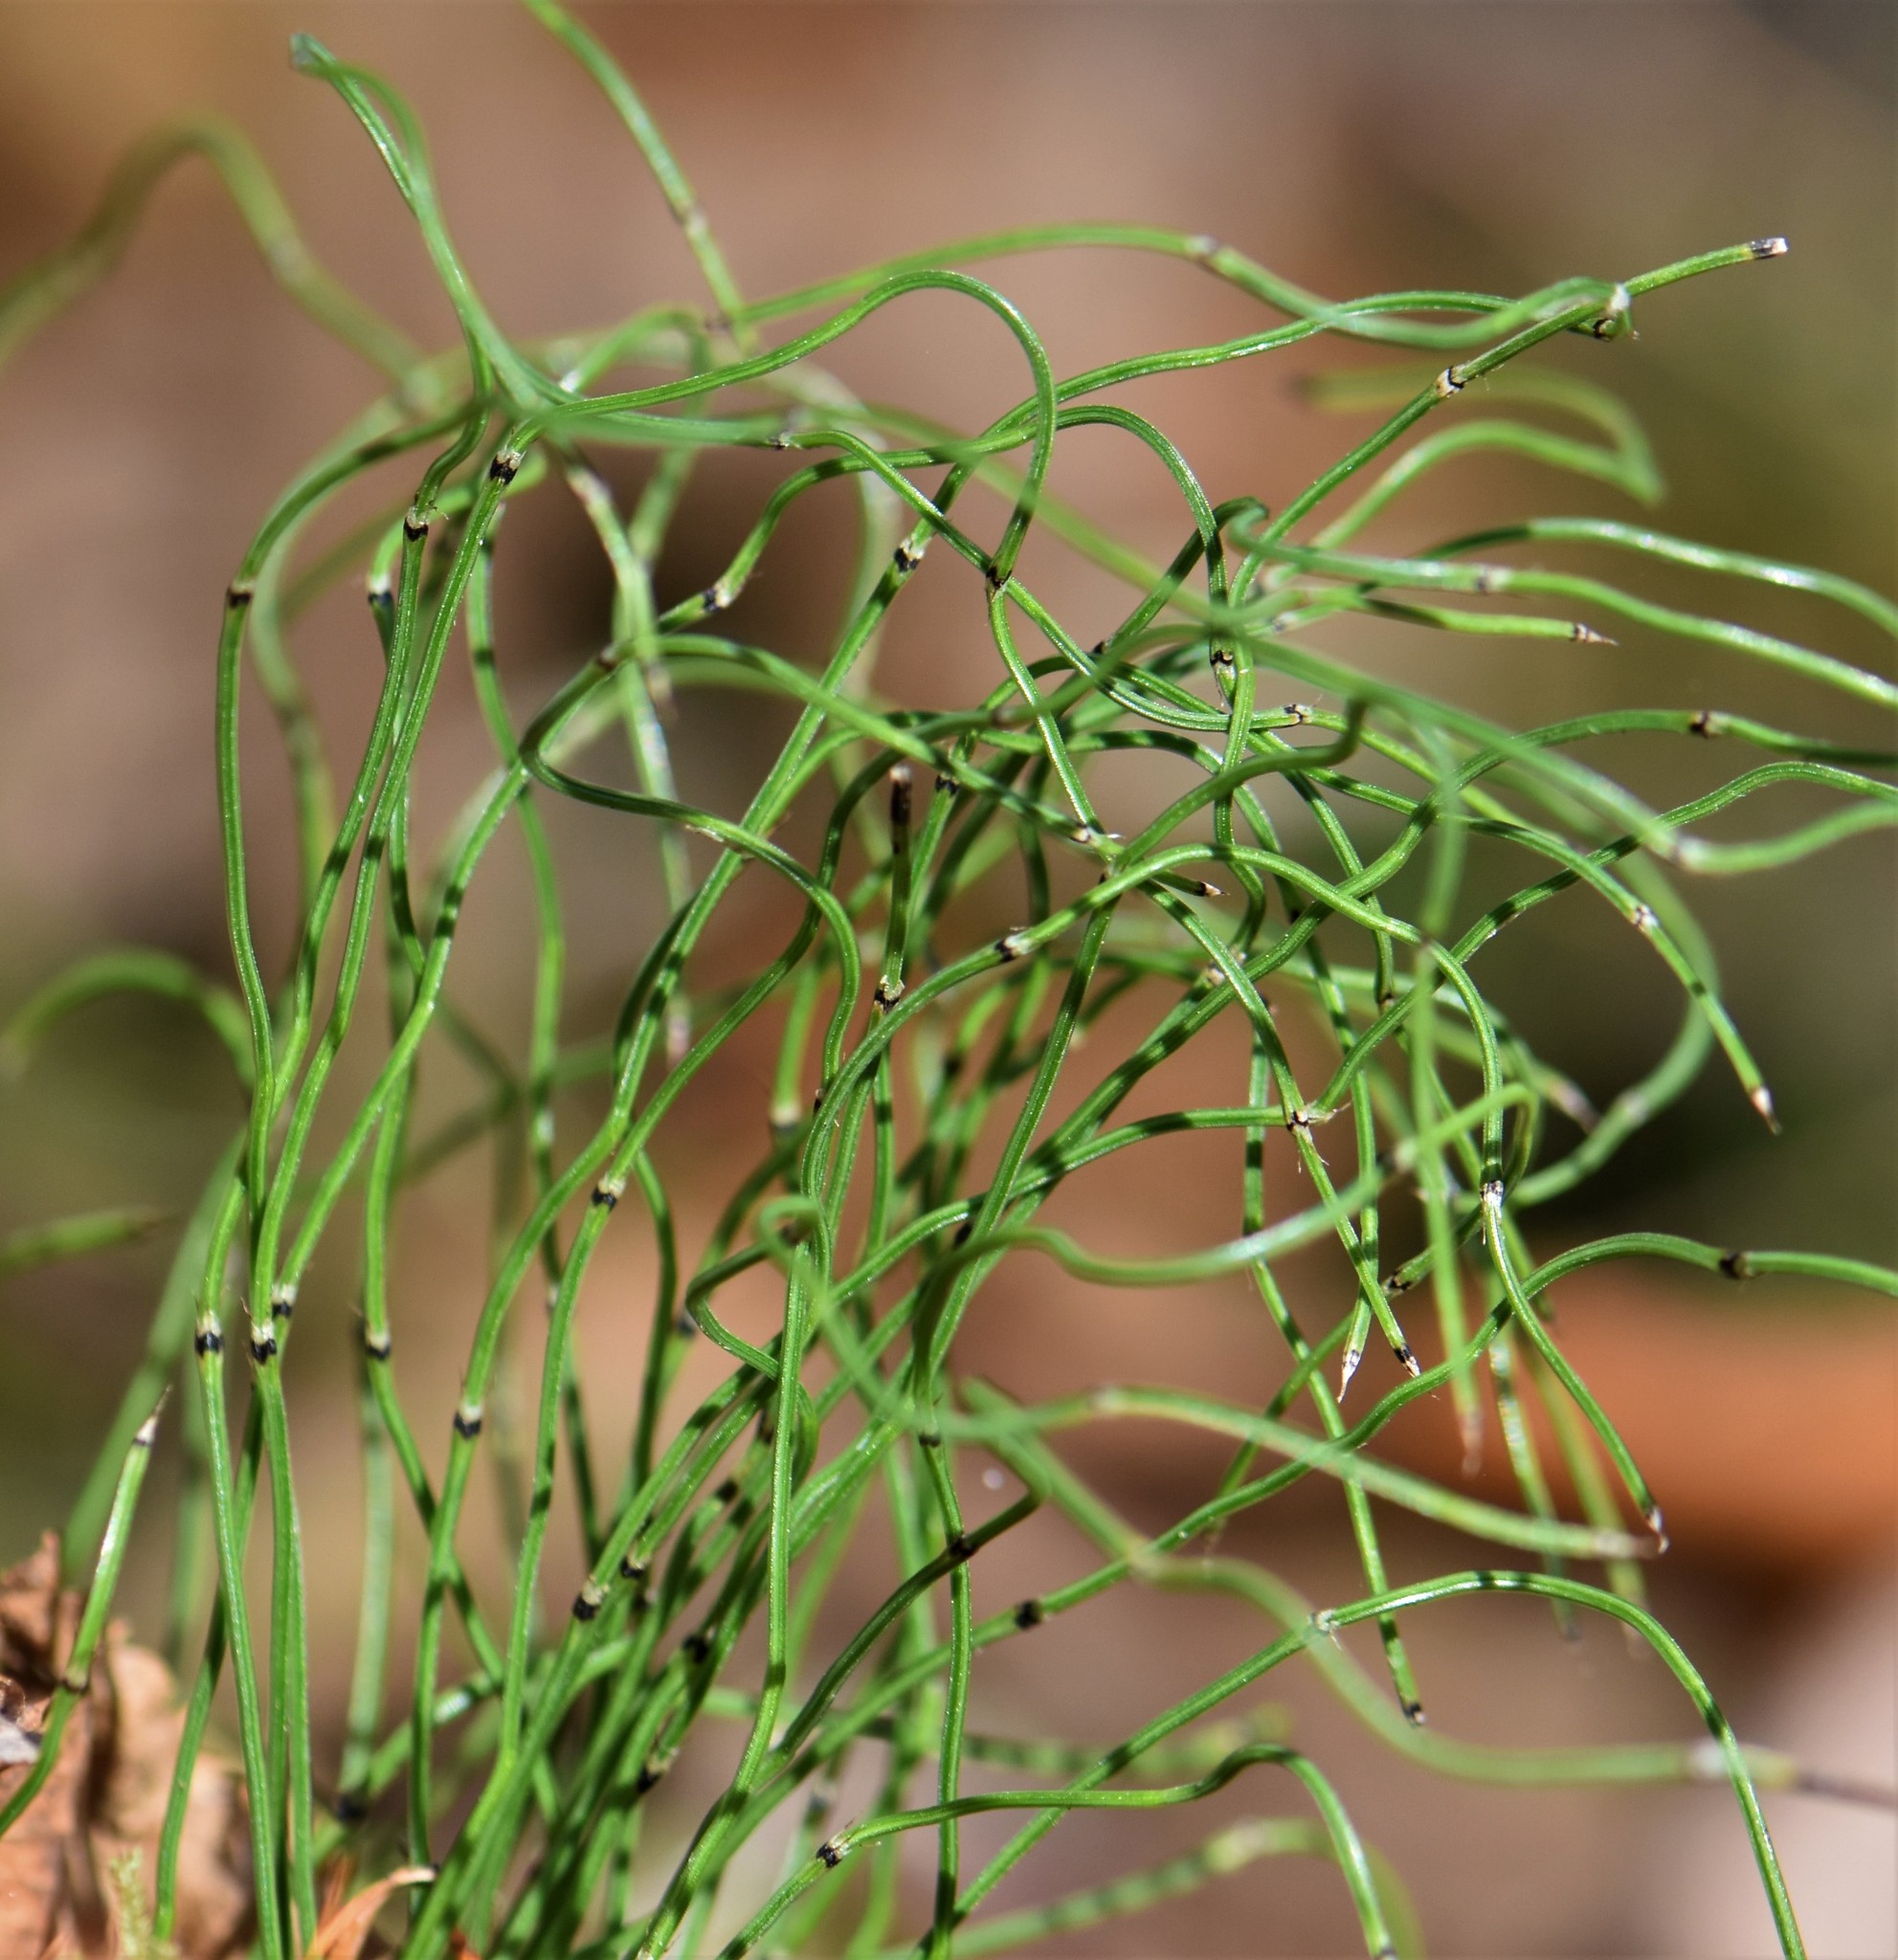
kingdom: Plantae
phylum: Tracheophyta
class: Polypodiopsida
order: Equisetales
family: Equisetaceae
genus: Equisetum
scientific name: Equisetum scirpoides
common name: Delicate horsetail
